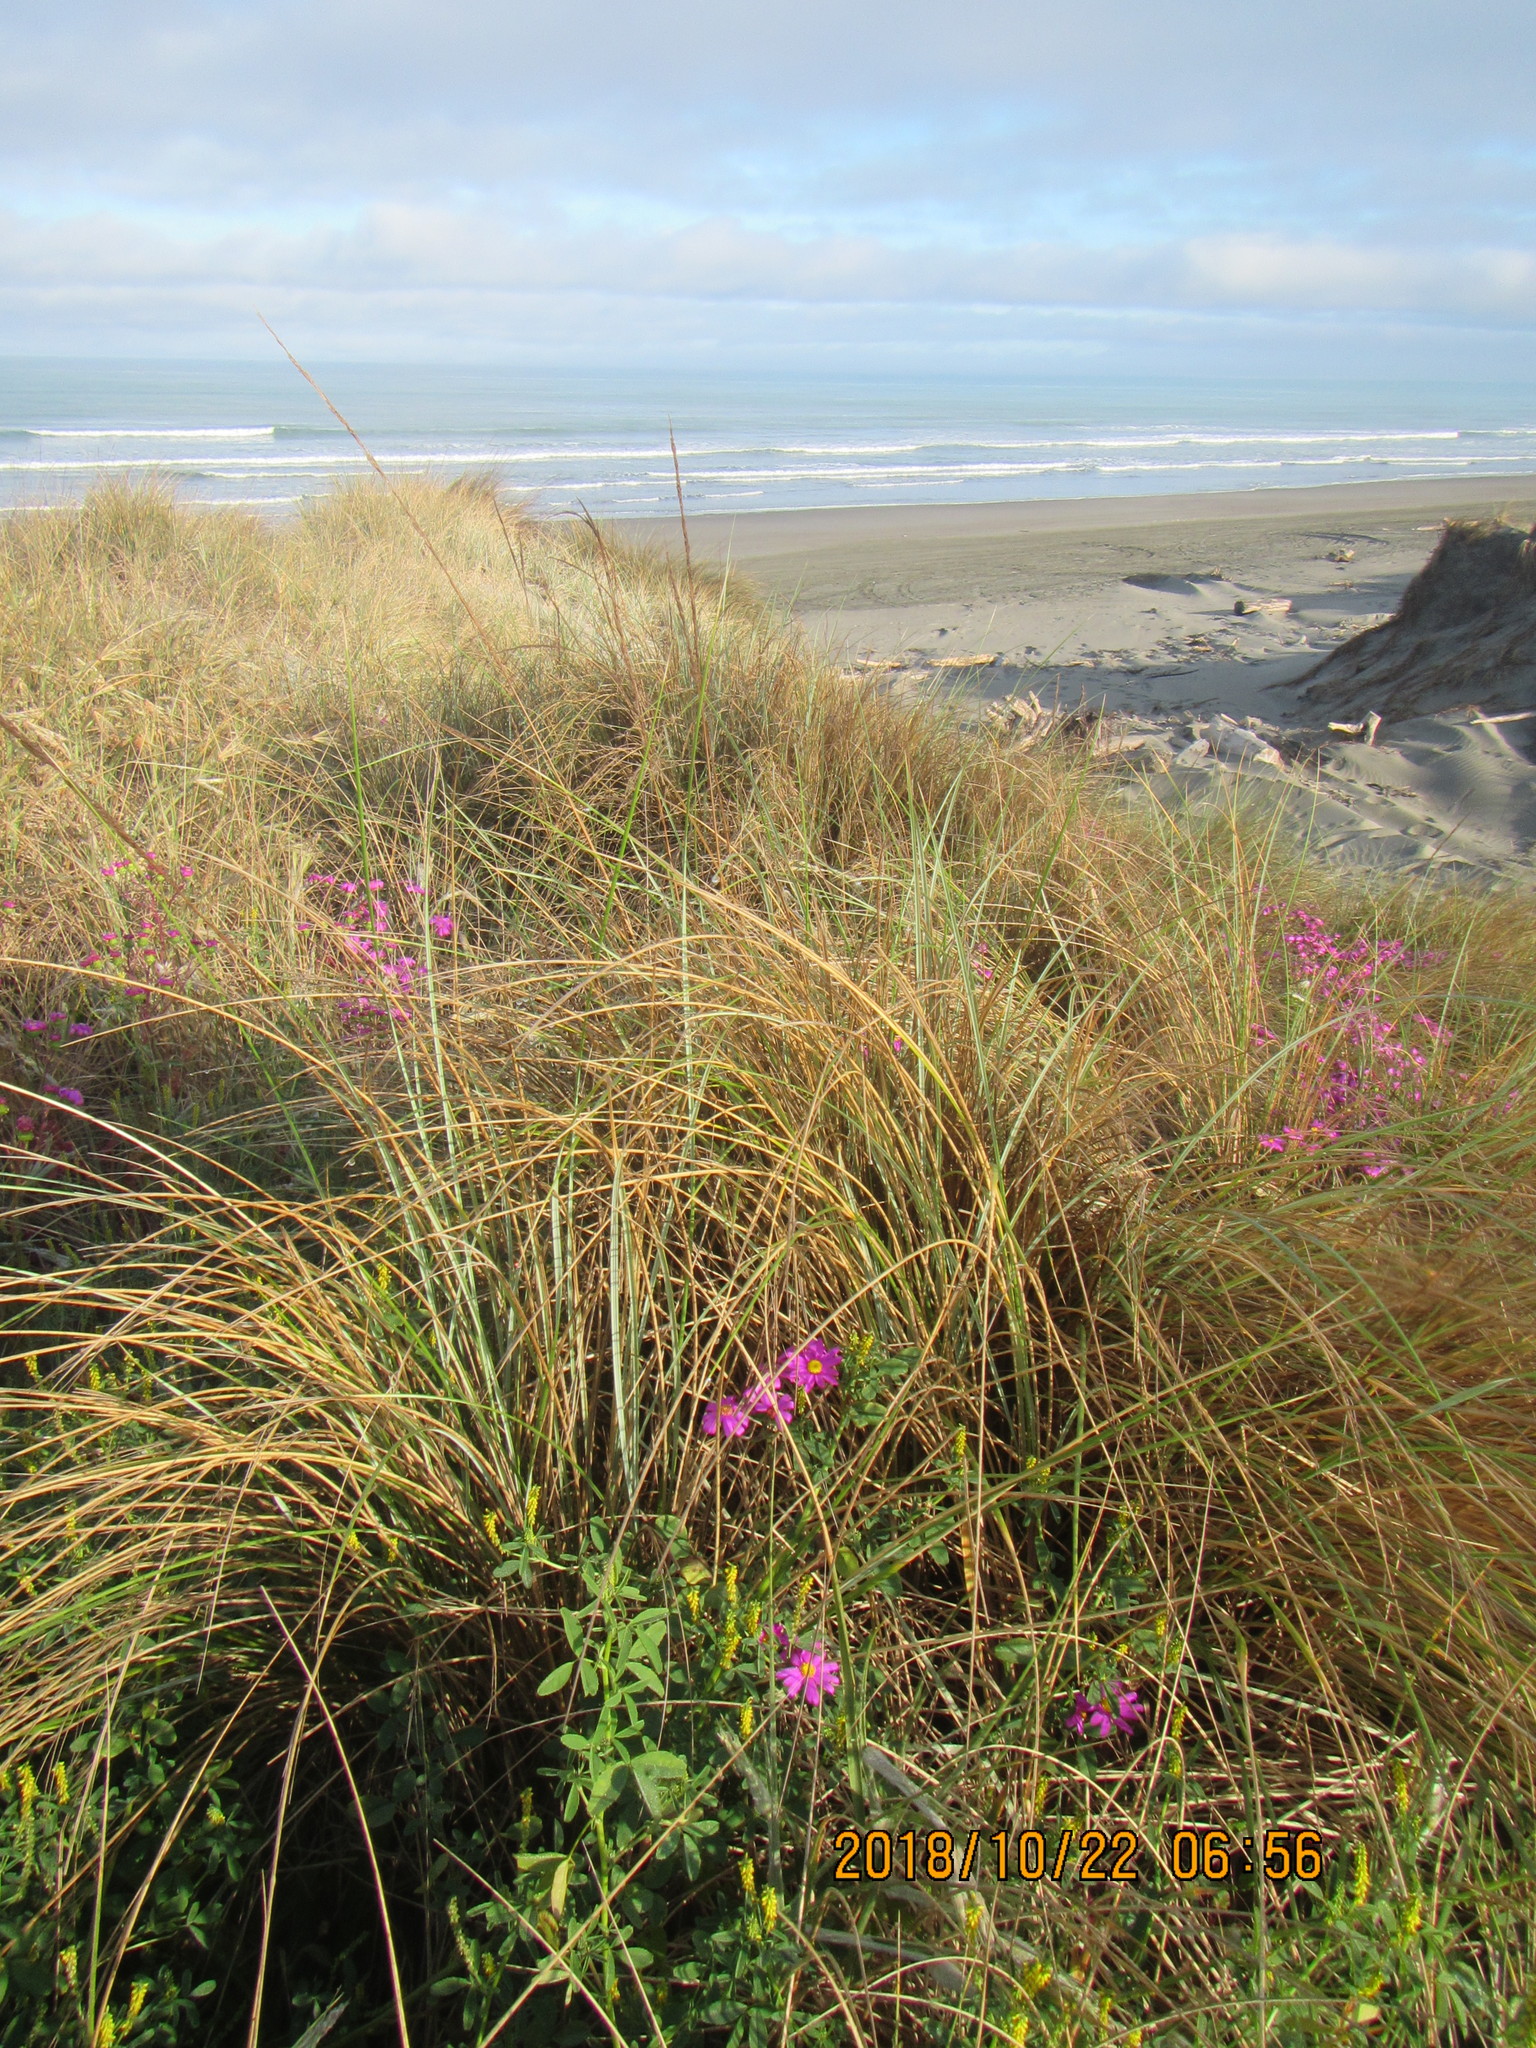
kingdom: Plantae
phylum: Tracheophyta
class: Magnoliopsida
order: Asterales
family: Asteraceae
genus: Senecio
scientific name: Senecio elegans
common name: Purple groundsel
